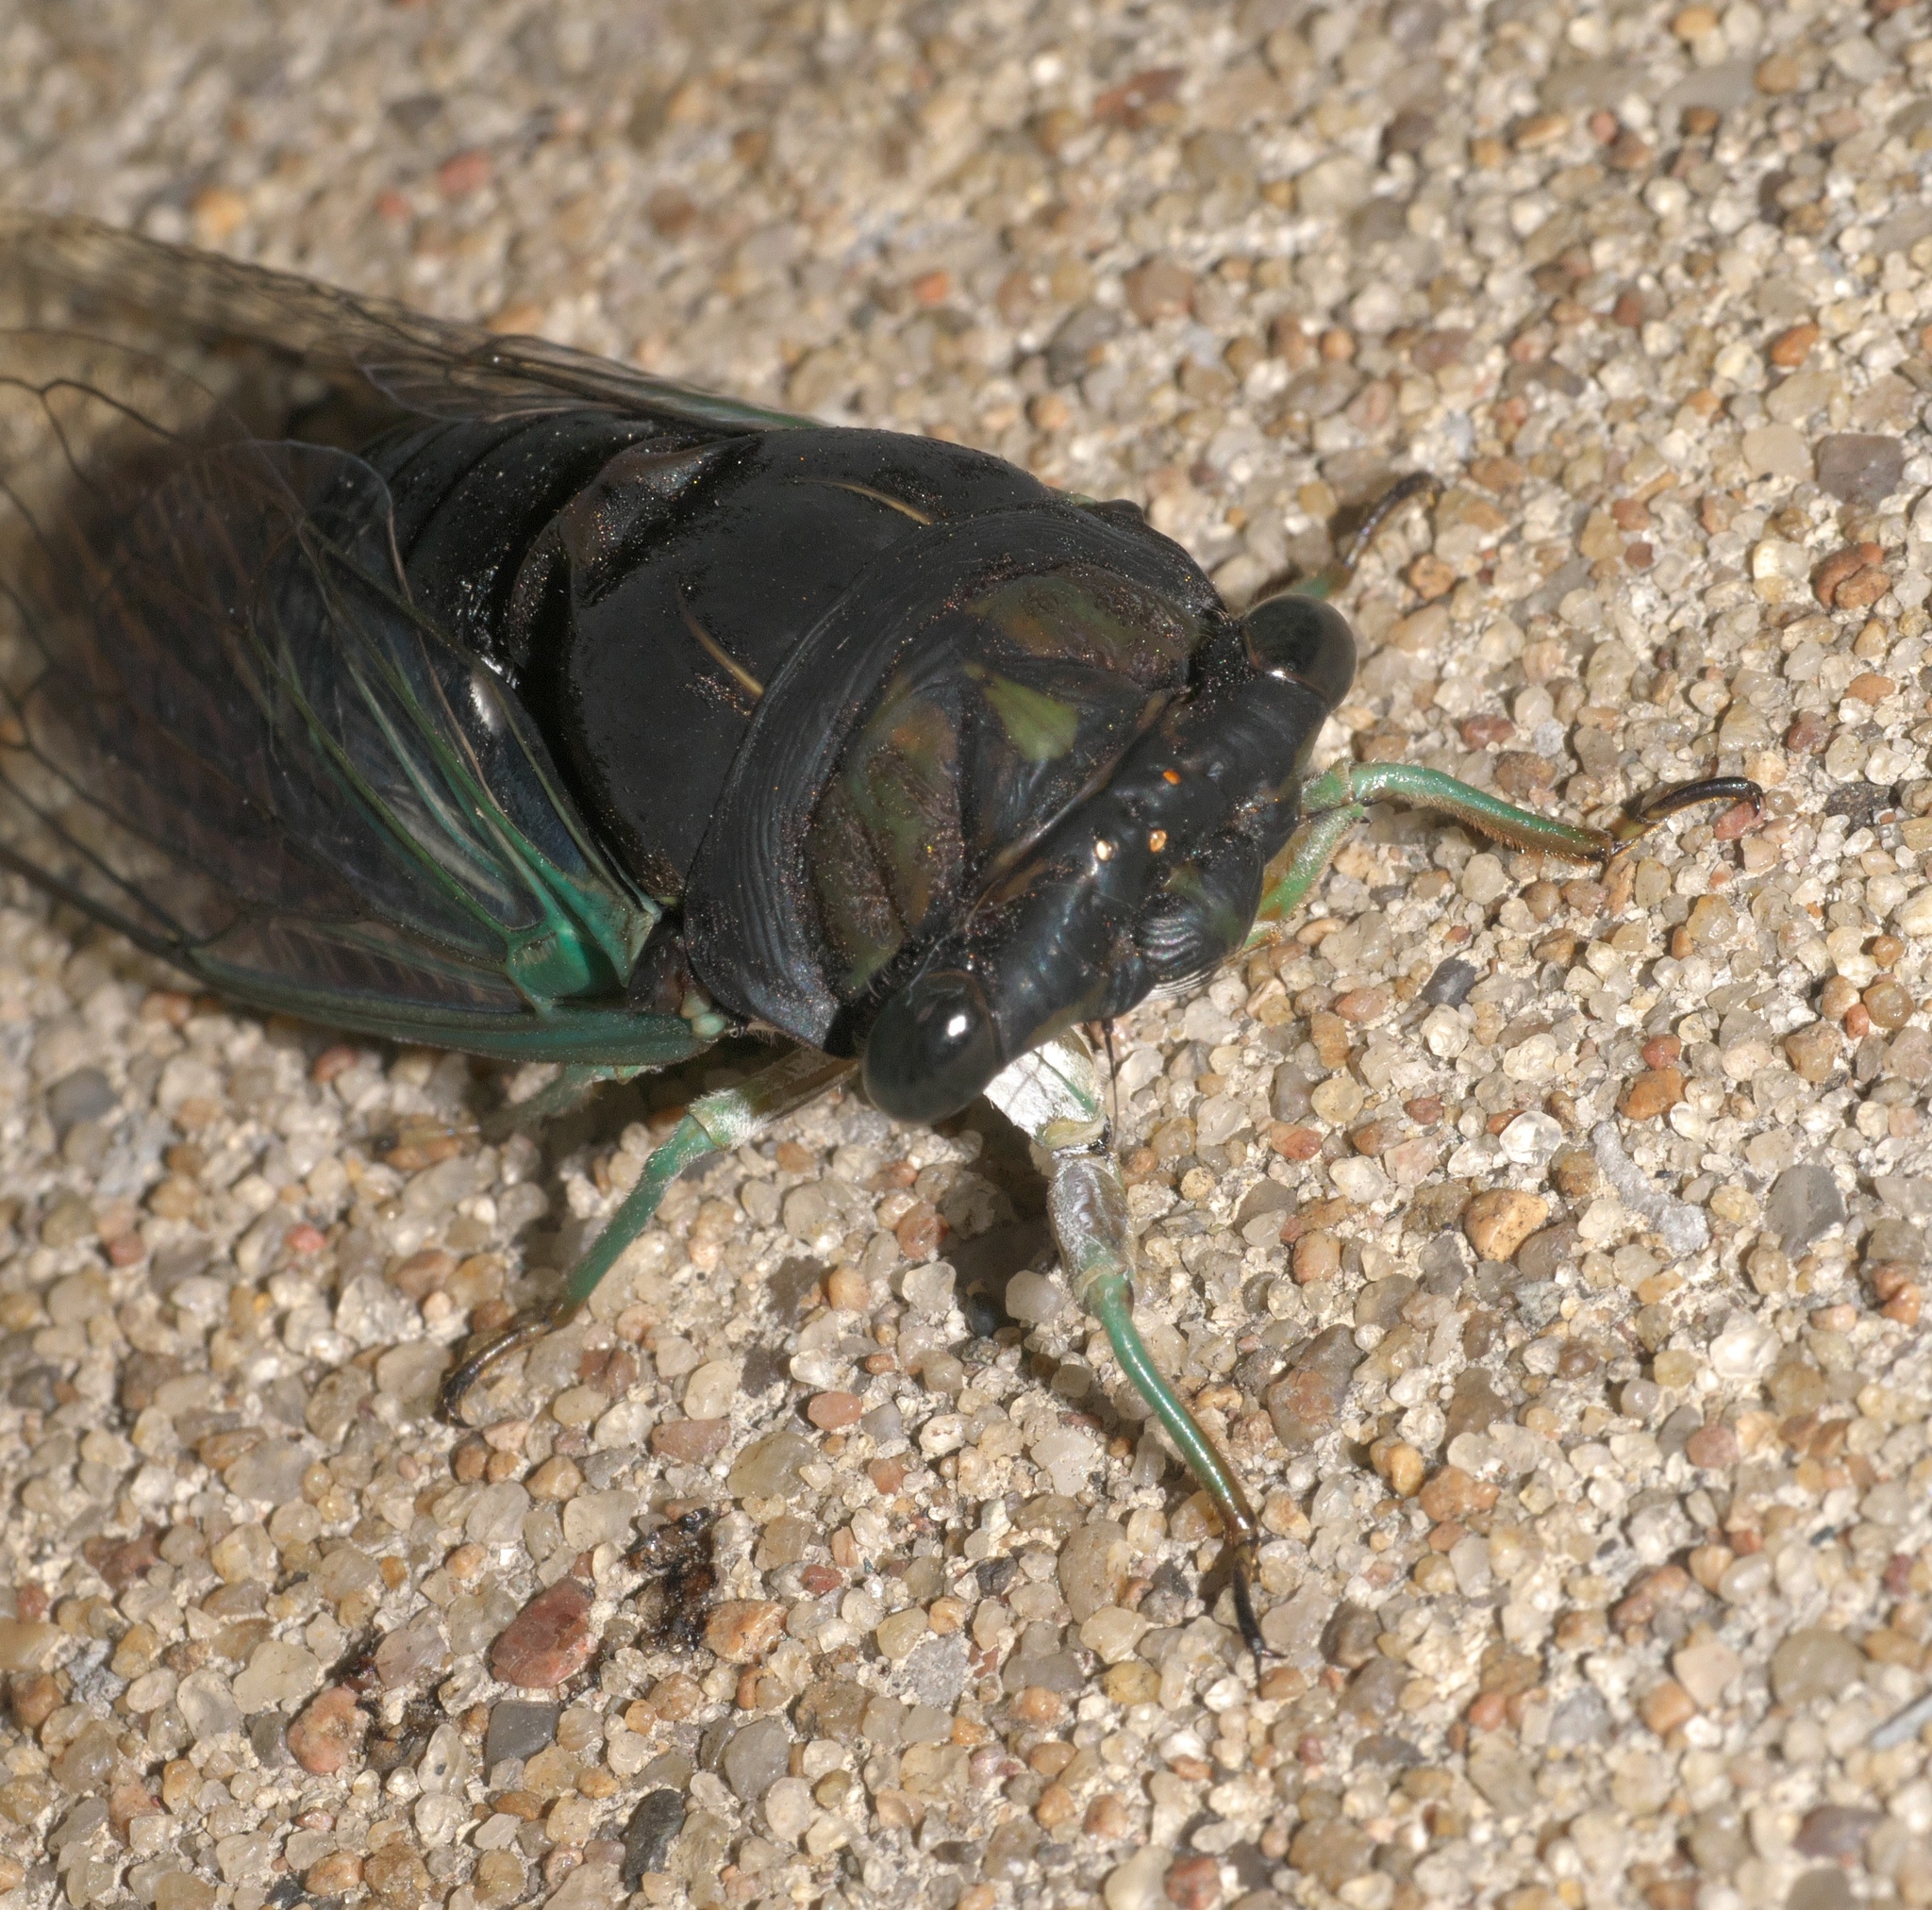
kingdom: Animalia
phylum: Arthropoda
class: Insecta
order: Hemiptera
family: Cicadidae
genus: Neotibicen
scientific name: Neotibicen tibicen
